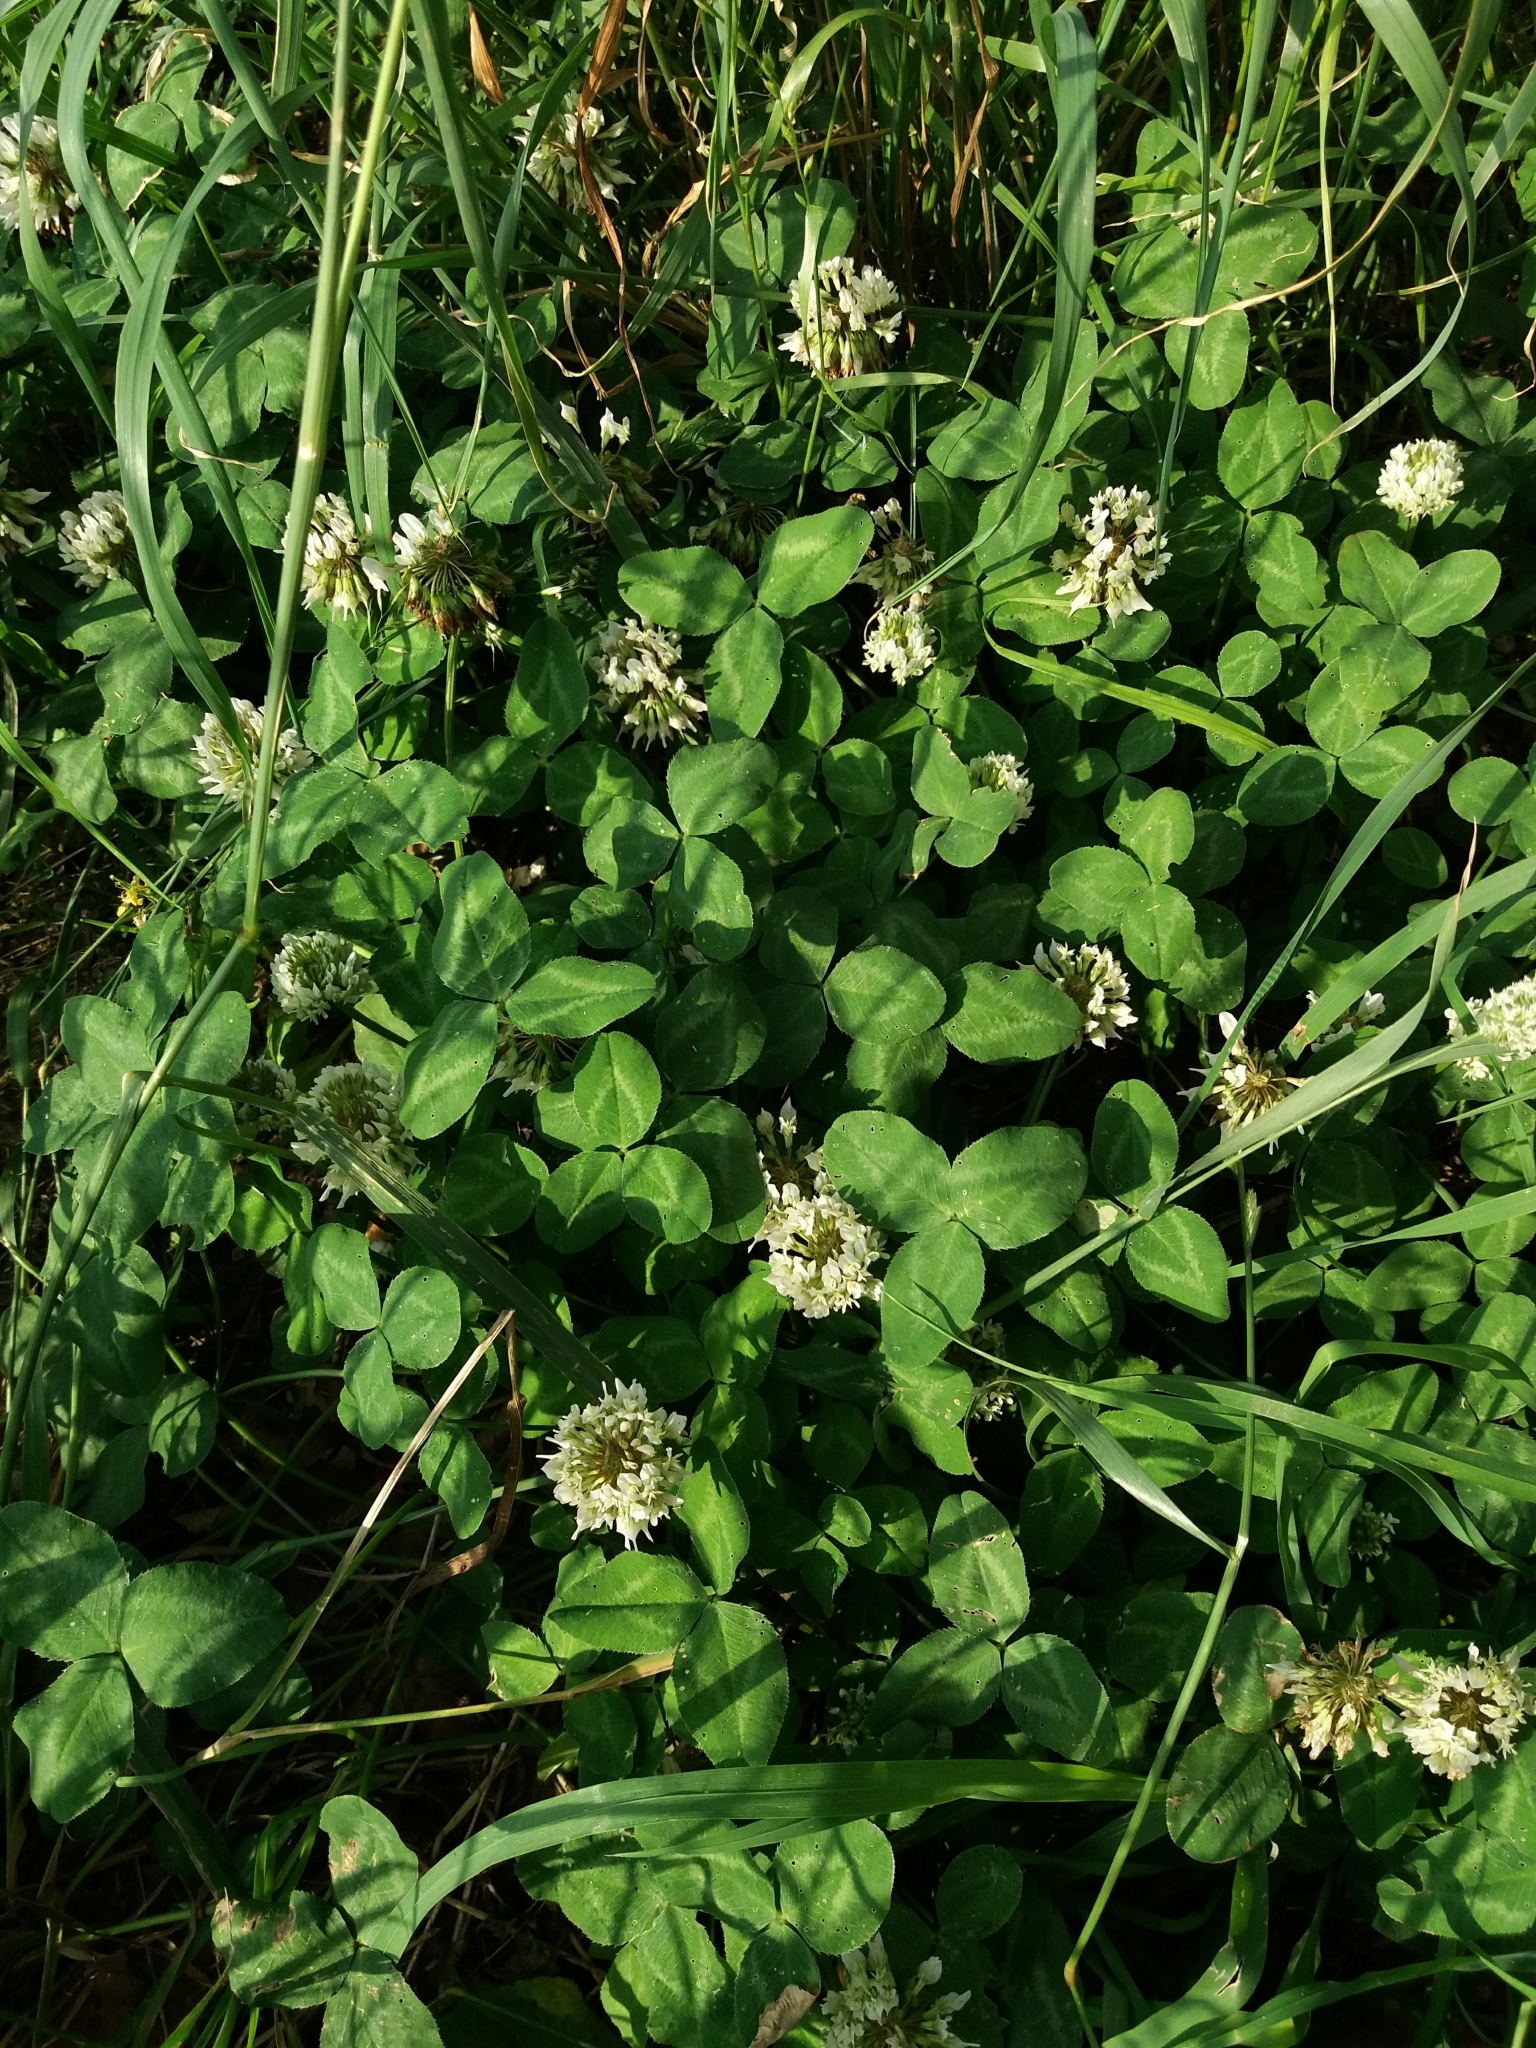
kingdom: Plantae
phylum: Tracheophyta
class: Magnoliopsida
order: Fabales
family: Fabaceae
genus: Trifolium
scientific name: Trifolium repens
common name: White clover
